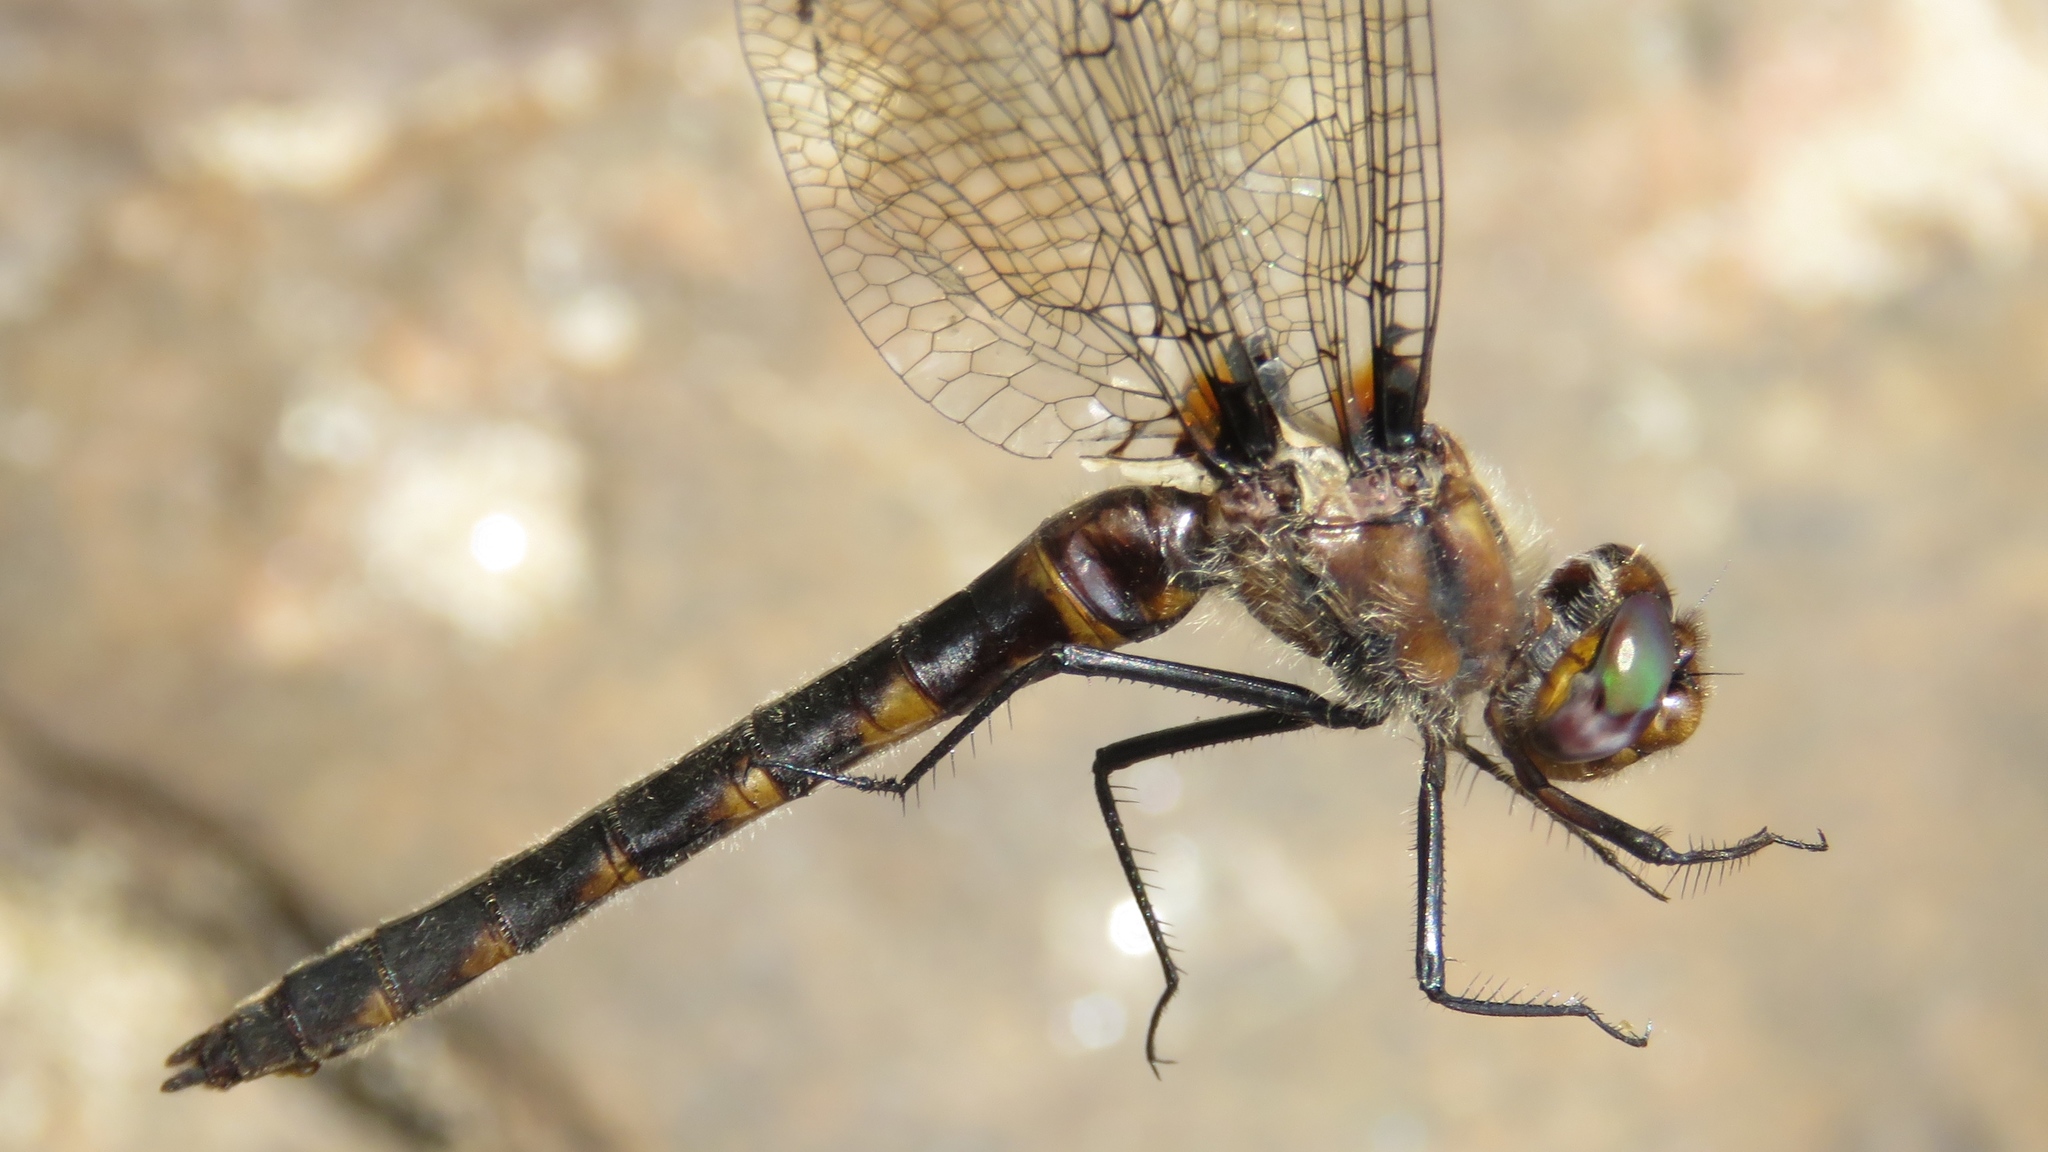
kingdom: Animalia
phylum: Arthropoda
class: Insecta
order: Odonata
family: Corduliidae
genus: Helocordulia
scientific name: Helocordulia uhleri
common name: Uhler's sundragon
